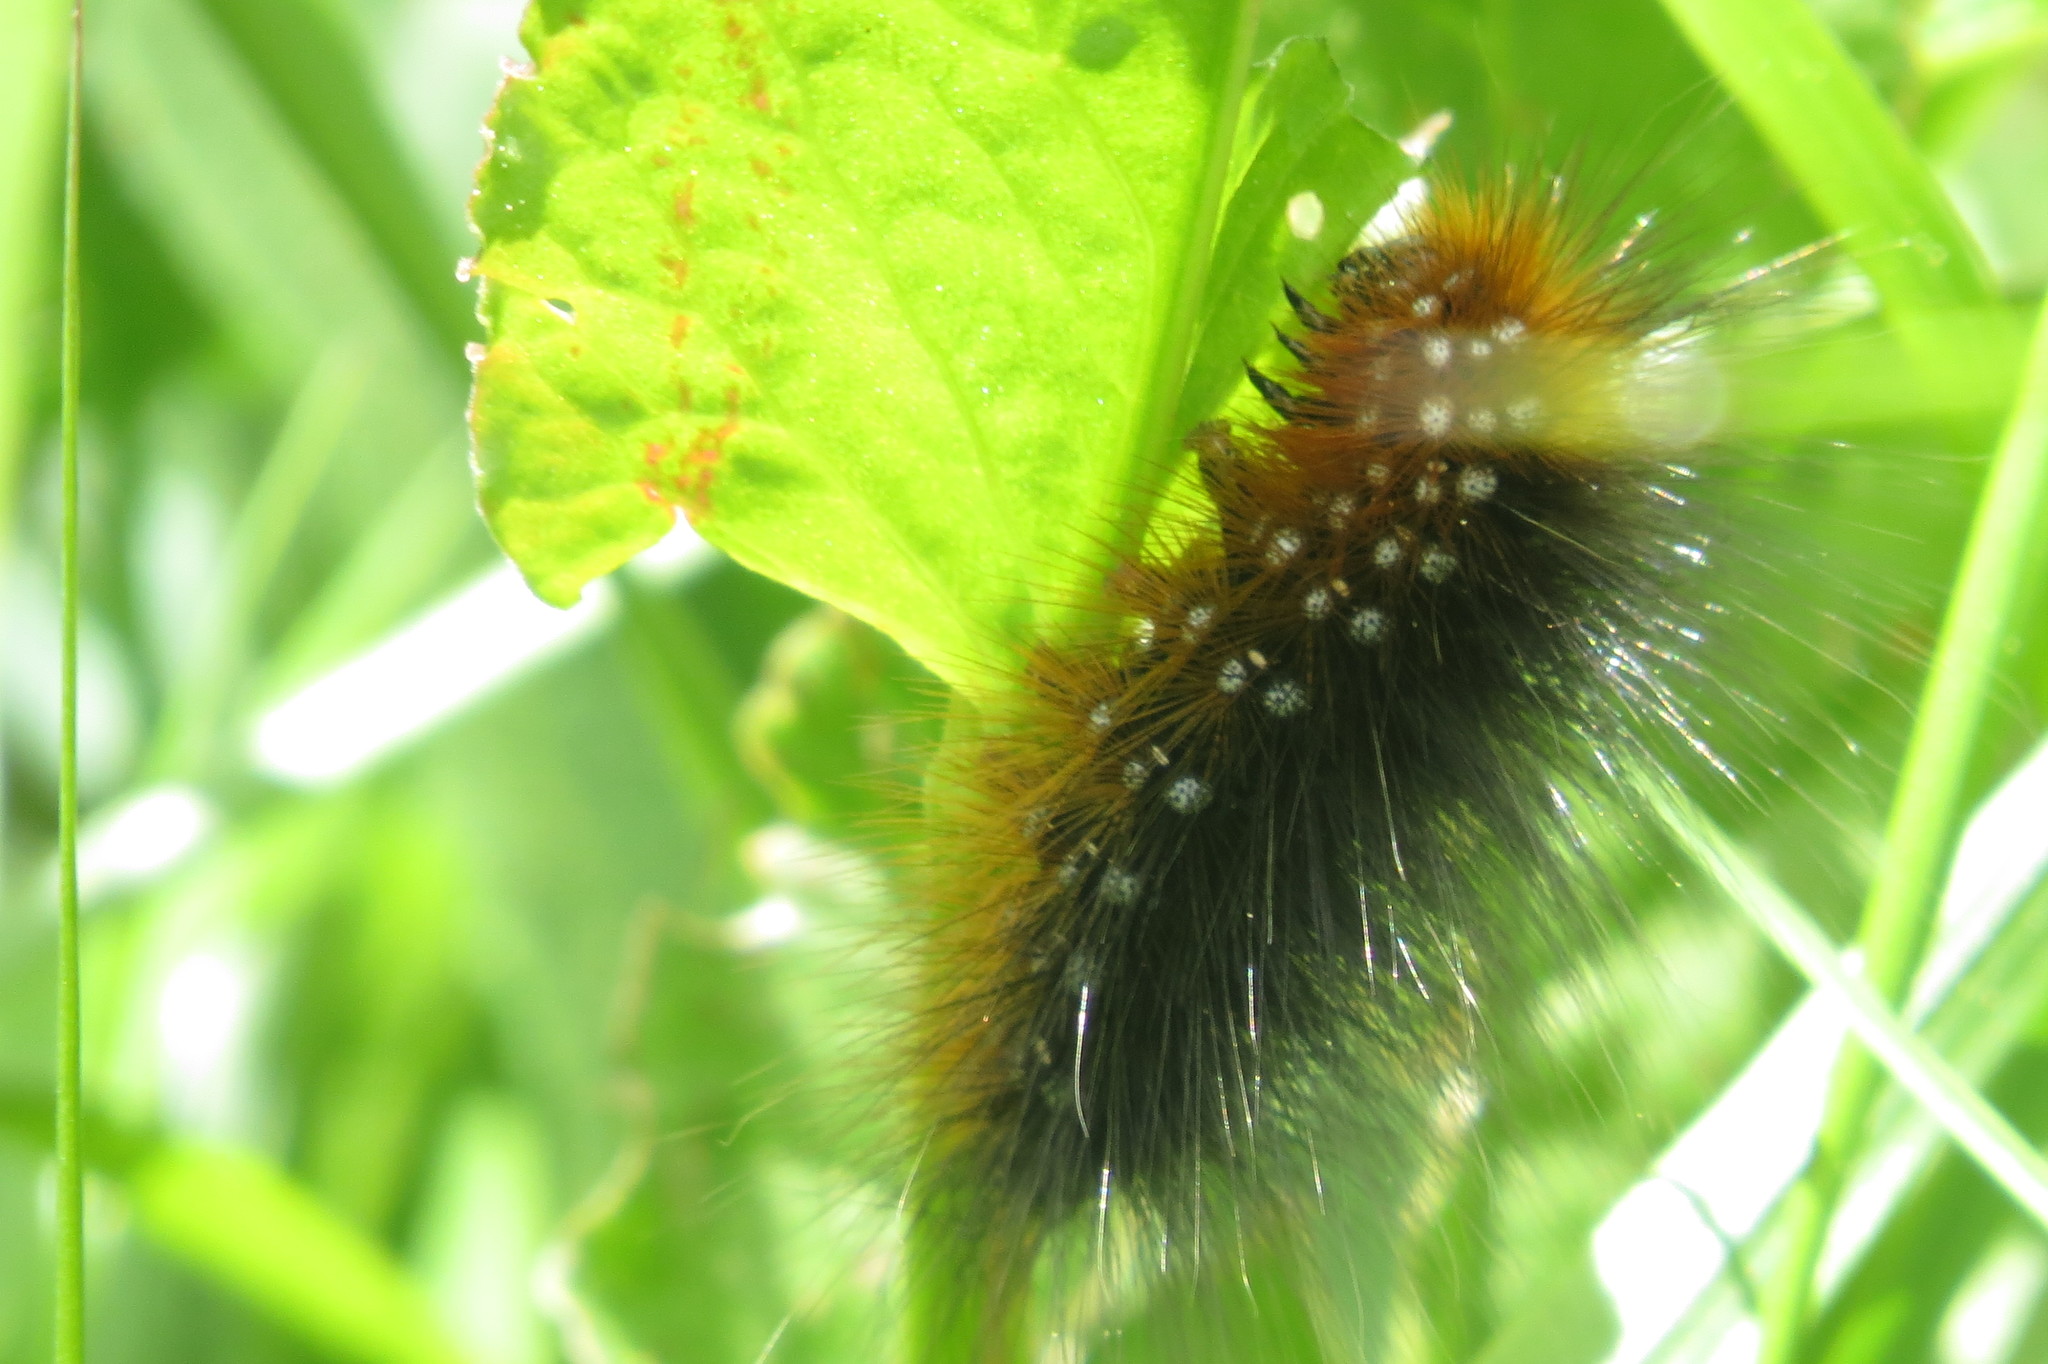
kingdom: Animalia
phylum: Arthropoda
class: Insecta
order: Lepidoptera
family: Erebidae
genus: Arctia
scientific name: Arctia caja
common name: Garden tiger
